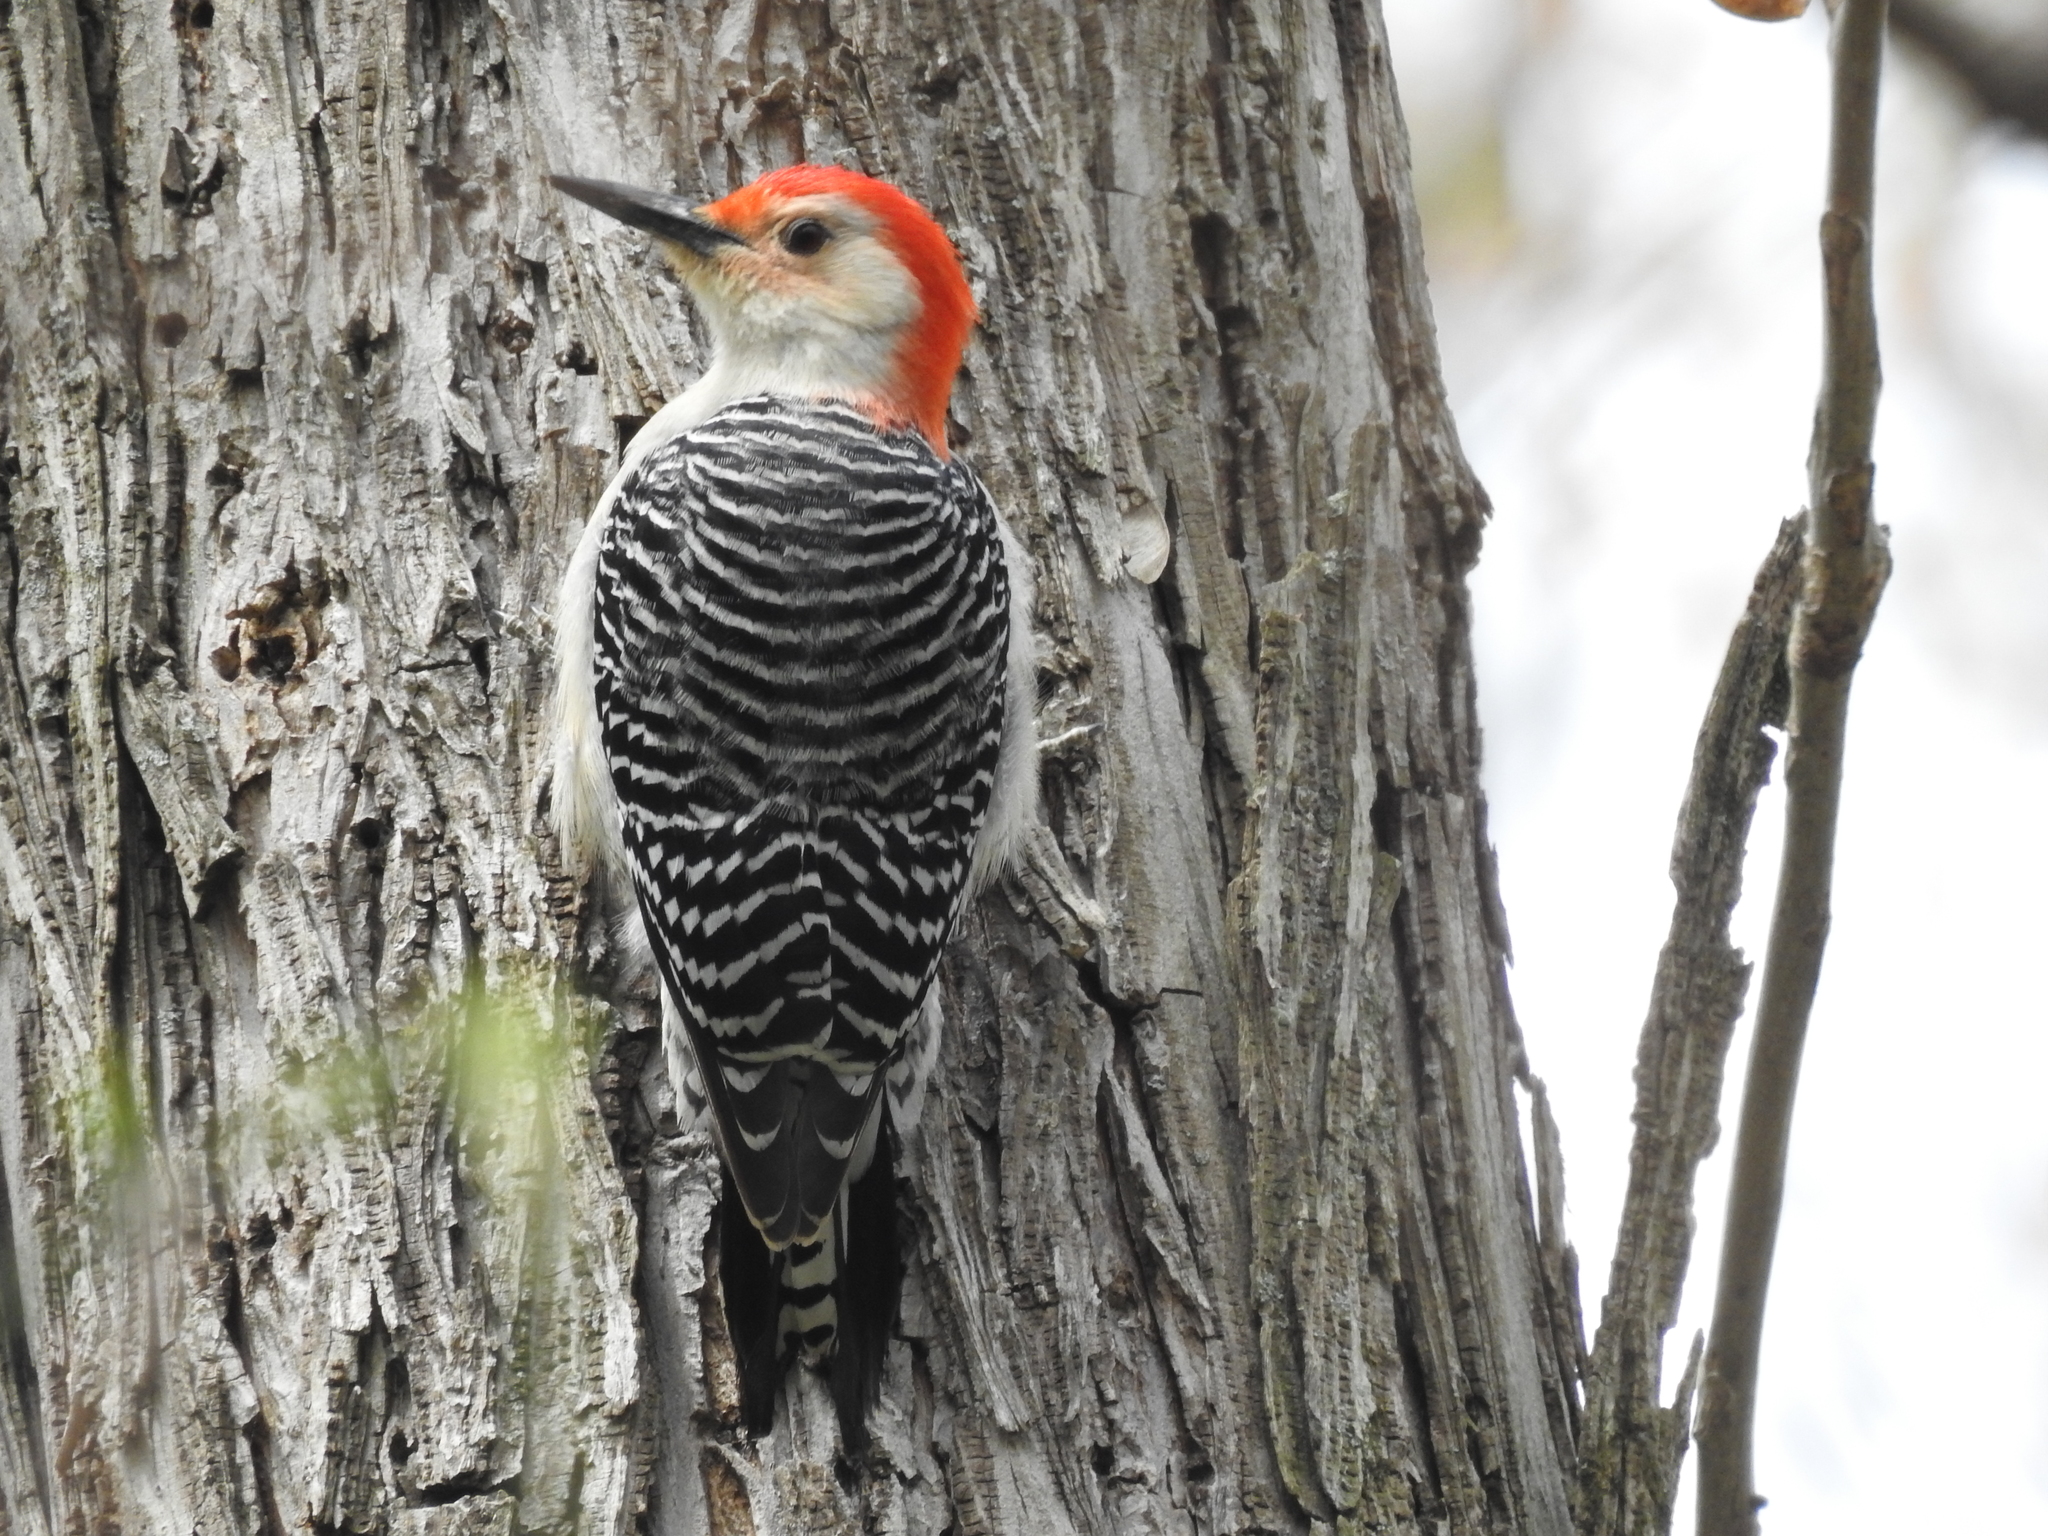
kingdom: Animalia
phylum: Chordata
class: Aves
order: Piciformes
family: Picidae
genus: Melanerpes
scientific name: Melanerpes carolinus
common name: Red-bellied woodpecker
